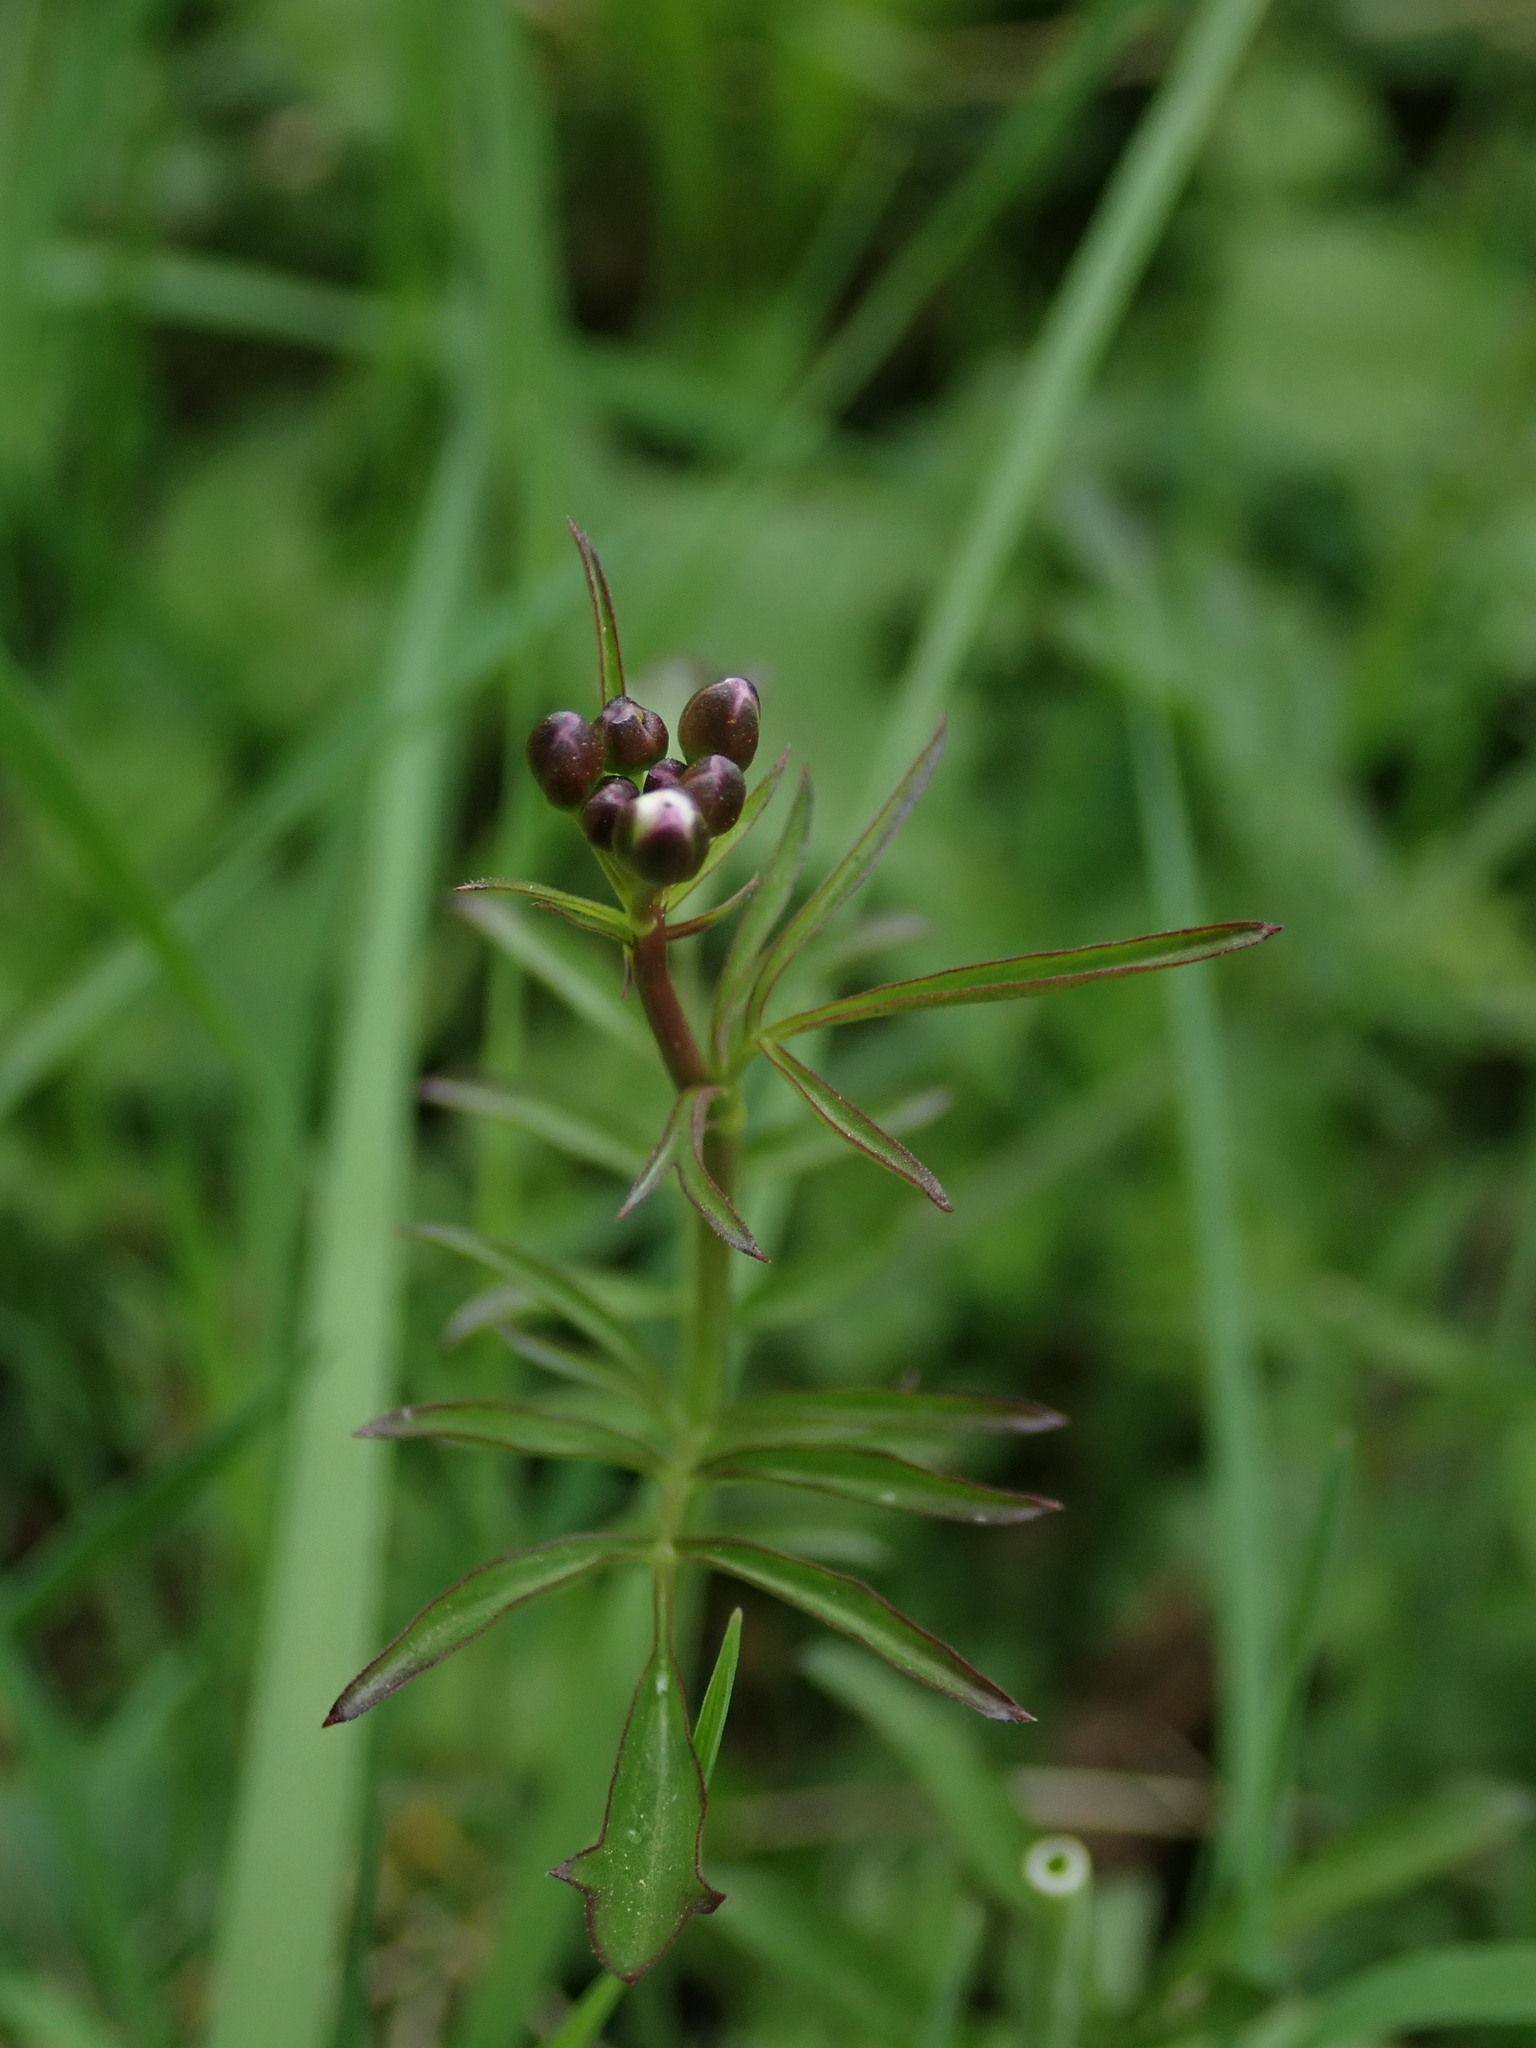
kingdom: Plantae
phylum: Tracheophyta
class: Magnoliopsida
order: Brassicales
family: Brassicaceae
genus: Cardamine
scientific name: Cardamine pratensis
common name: Cuckoo flower
